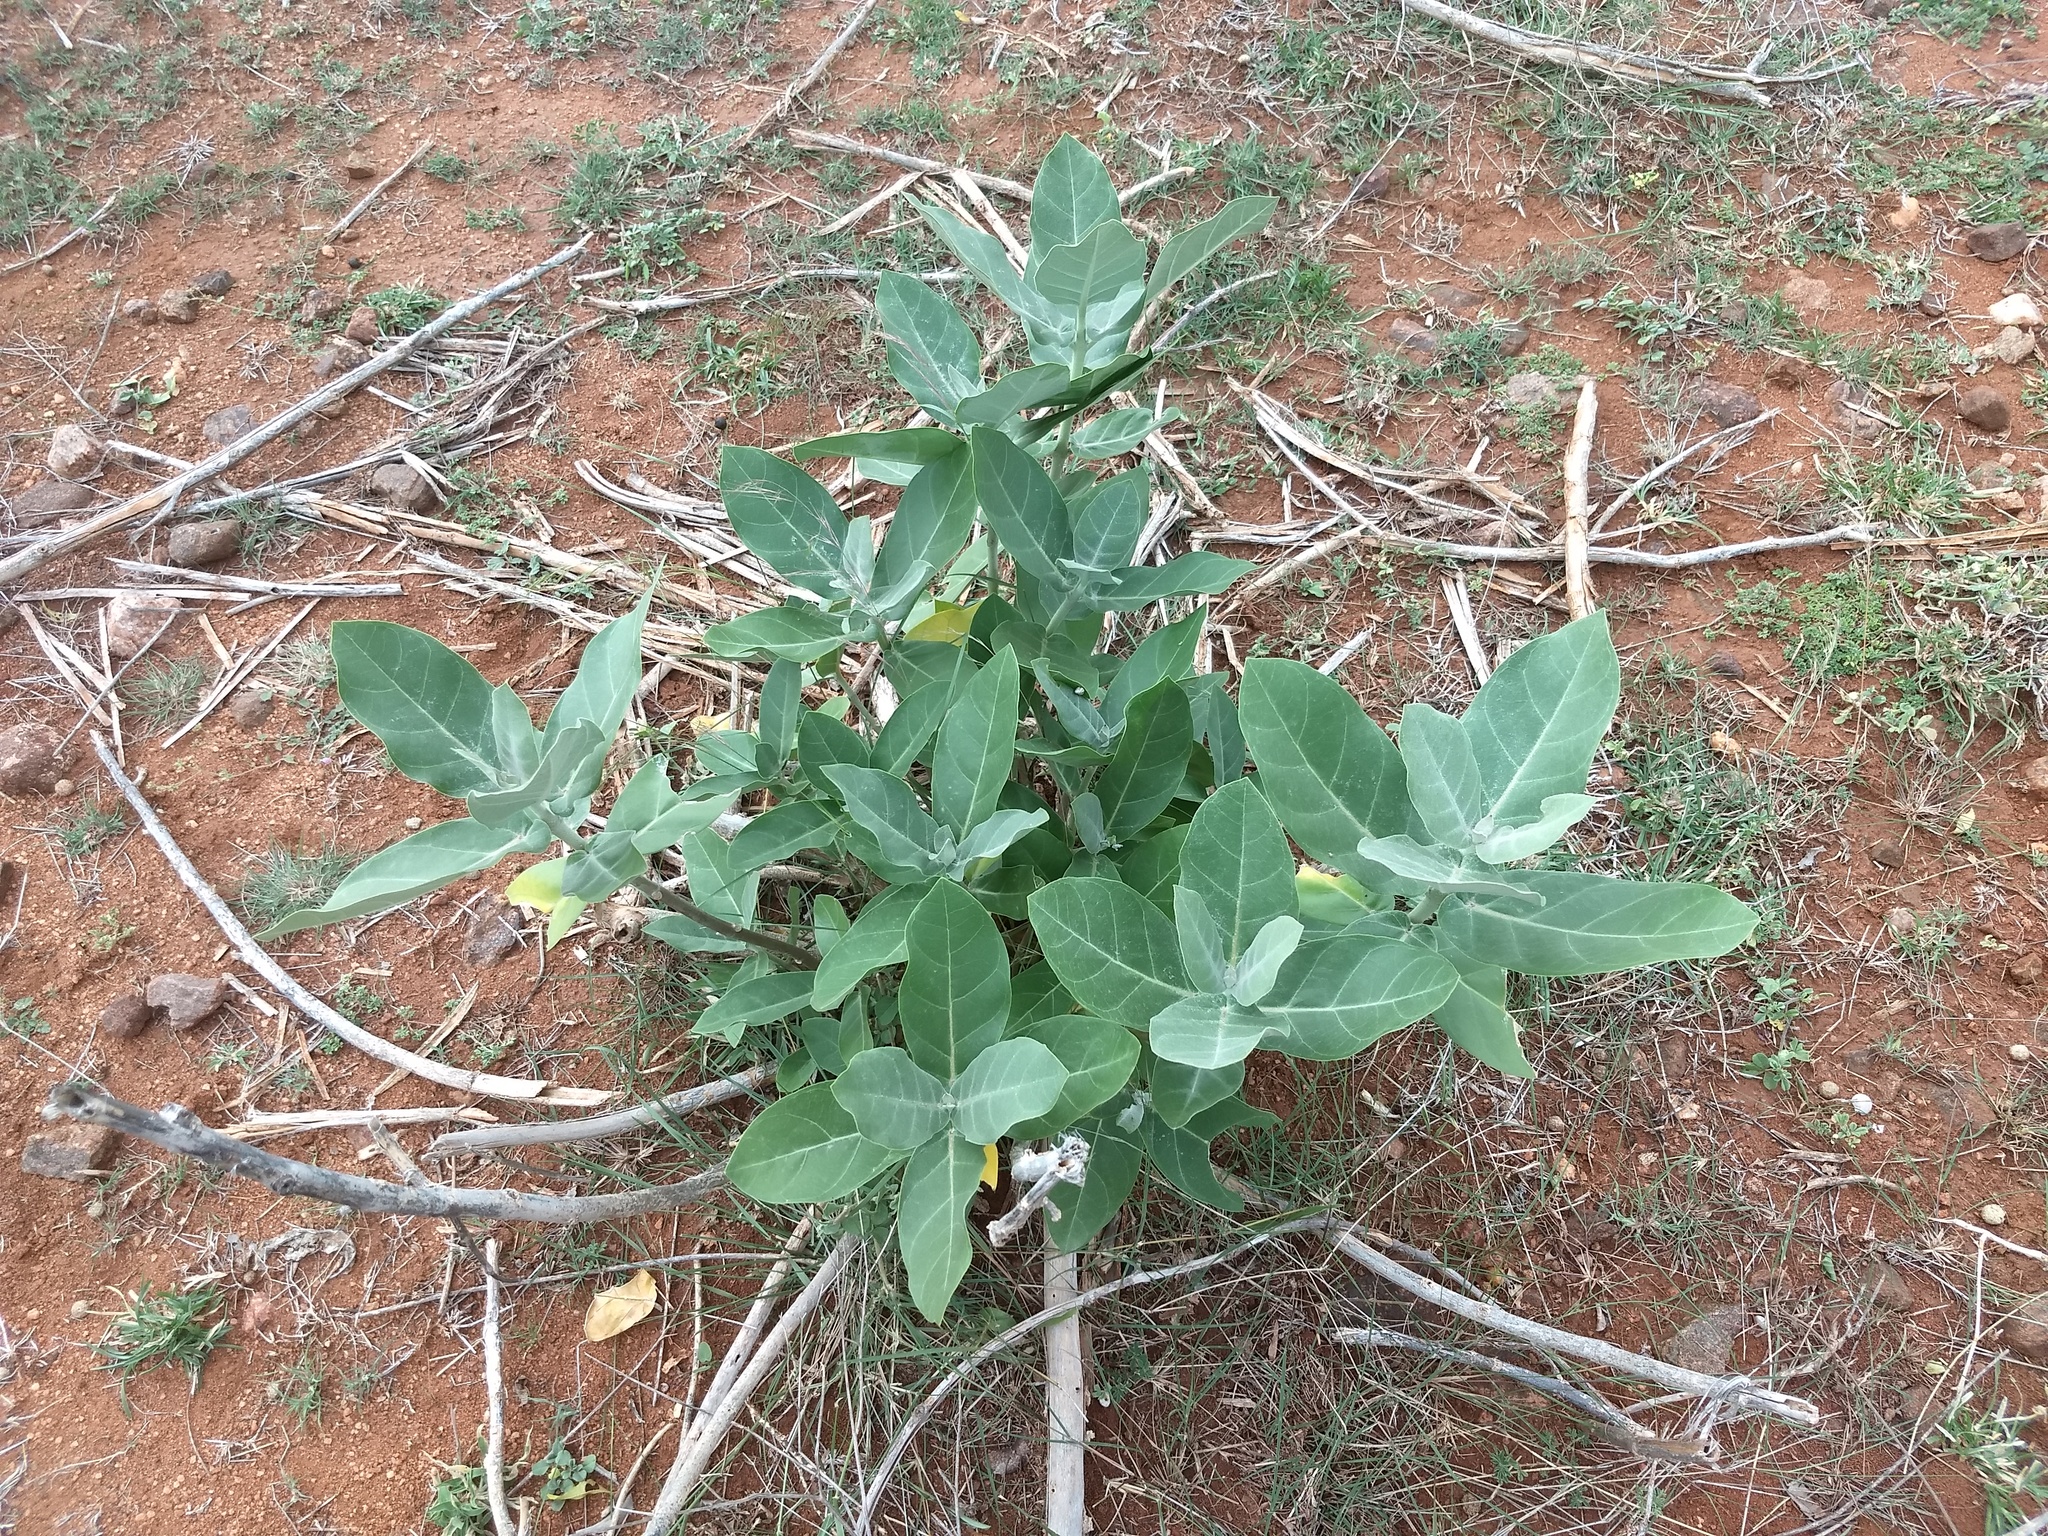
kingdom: Plantae
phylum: Tracheophyta
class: Magnoliopsida
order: Gentianales
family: Apocynaceae
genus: Calotropis
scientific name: Calotropis gigantea
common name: Crown flower
